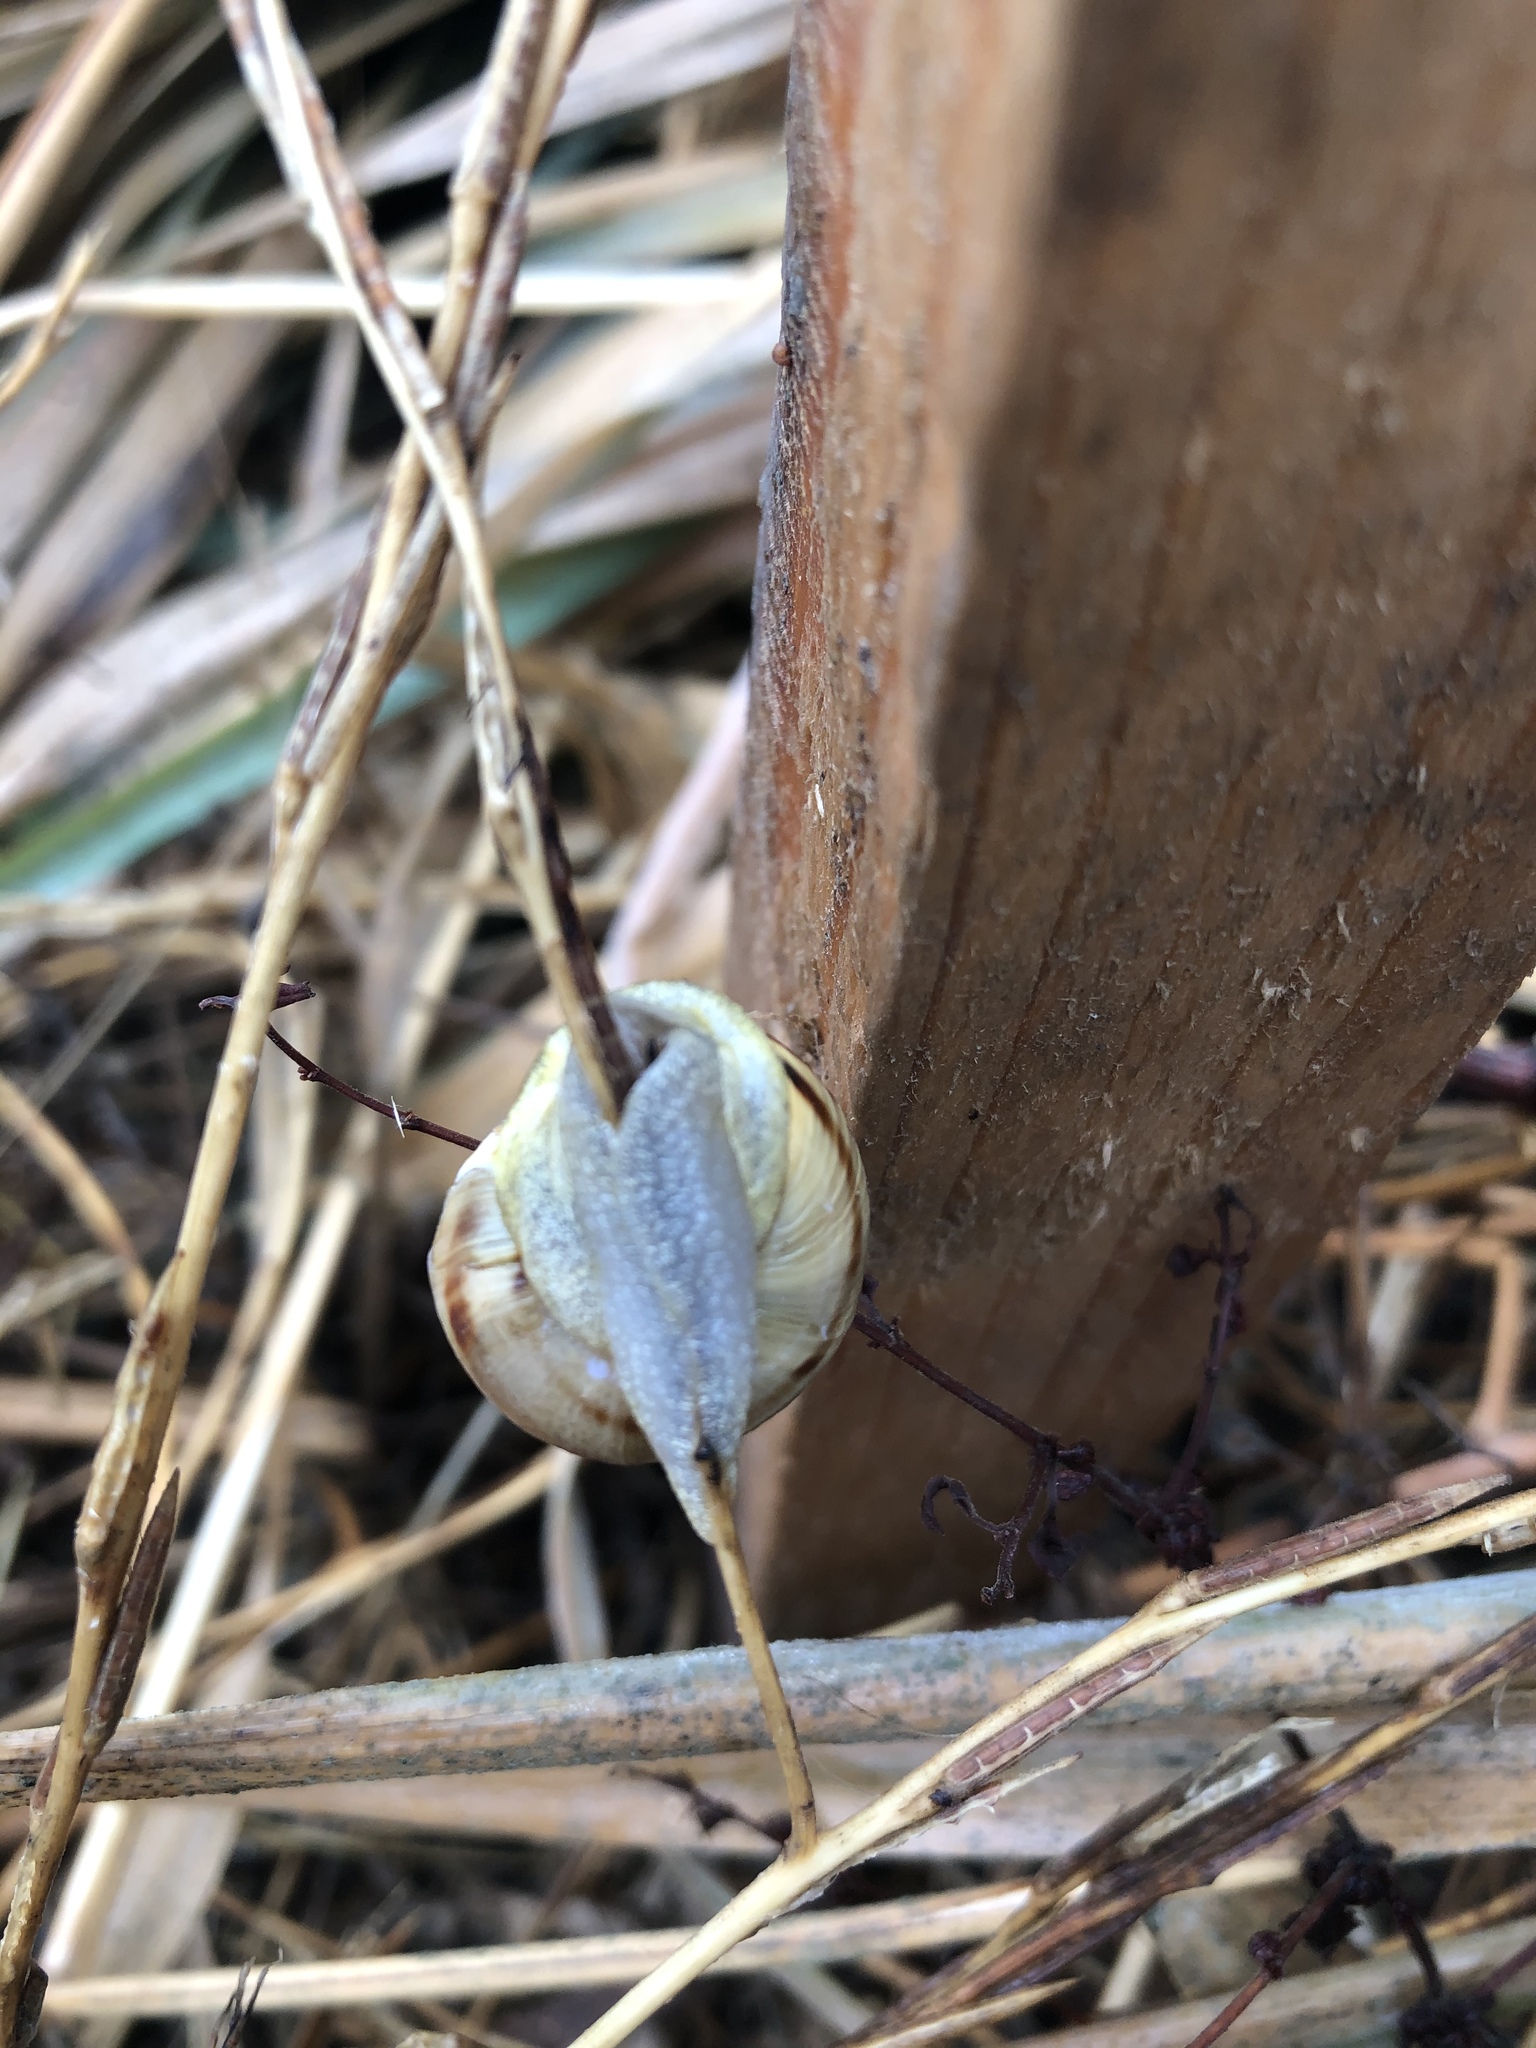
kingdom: Animalia
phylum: Mollusca
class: Gastropoda
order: Stylommatophora
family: Helicidae
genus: Cepaea
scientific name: Cepaea nemoralis
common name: Grovesnail
